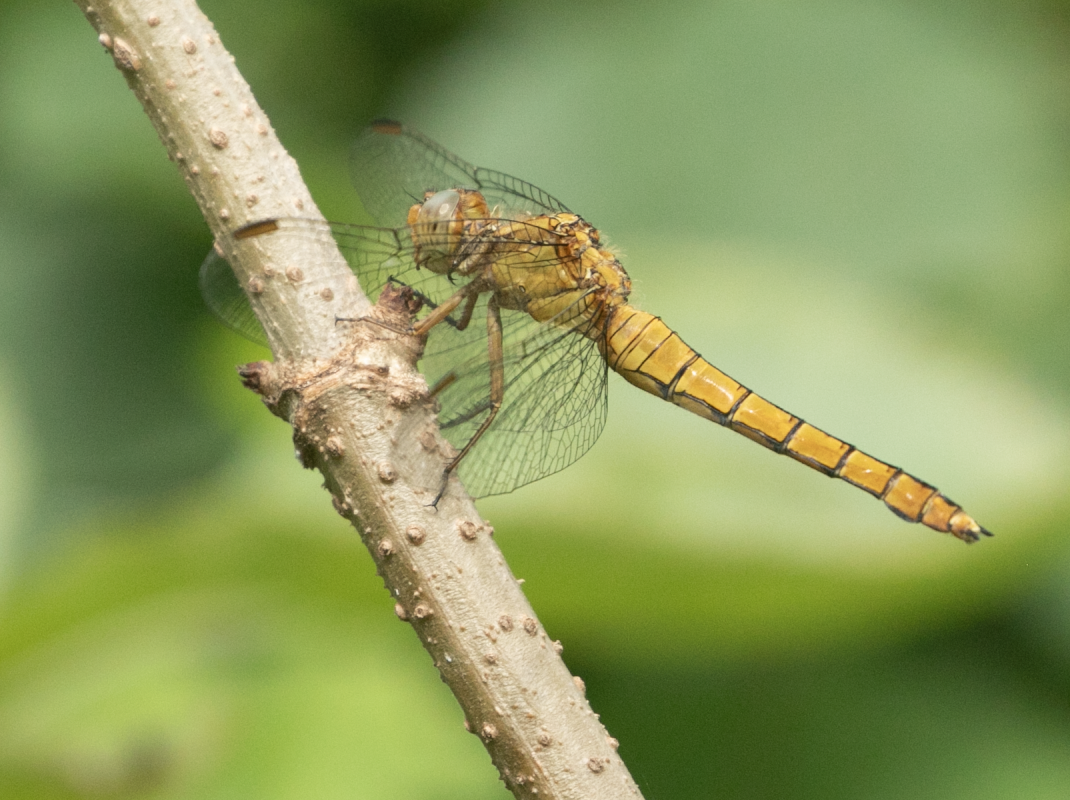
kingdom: Animalia
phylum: Arthropoda
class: Insecta
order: Odonata
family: Libellulidae
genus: Orthetrum
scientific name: Orthetrum coerulescens
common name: Keeled skimmer
